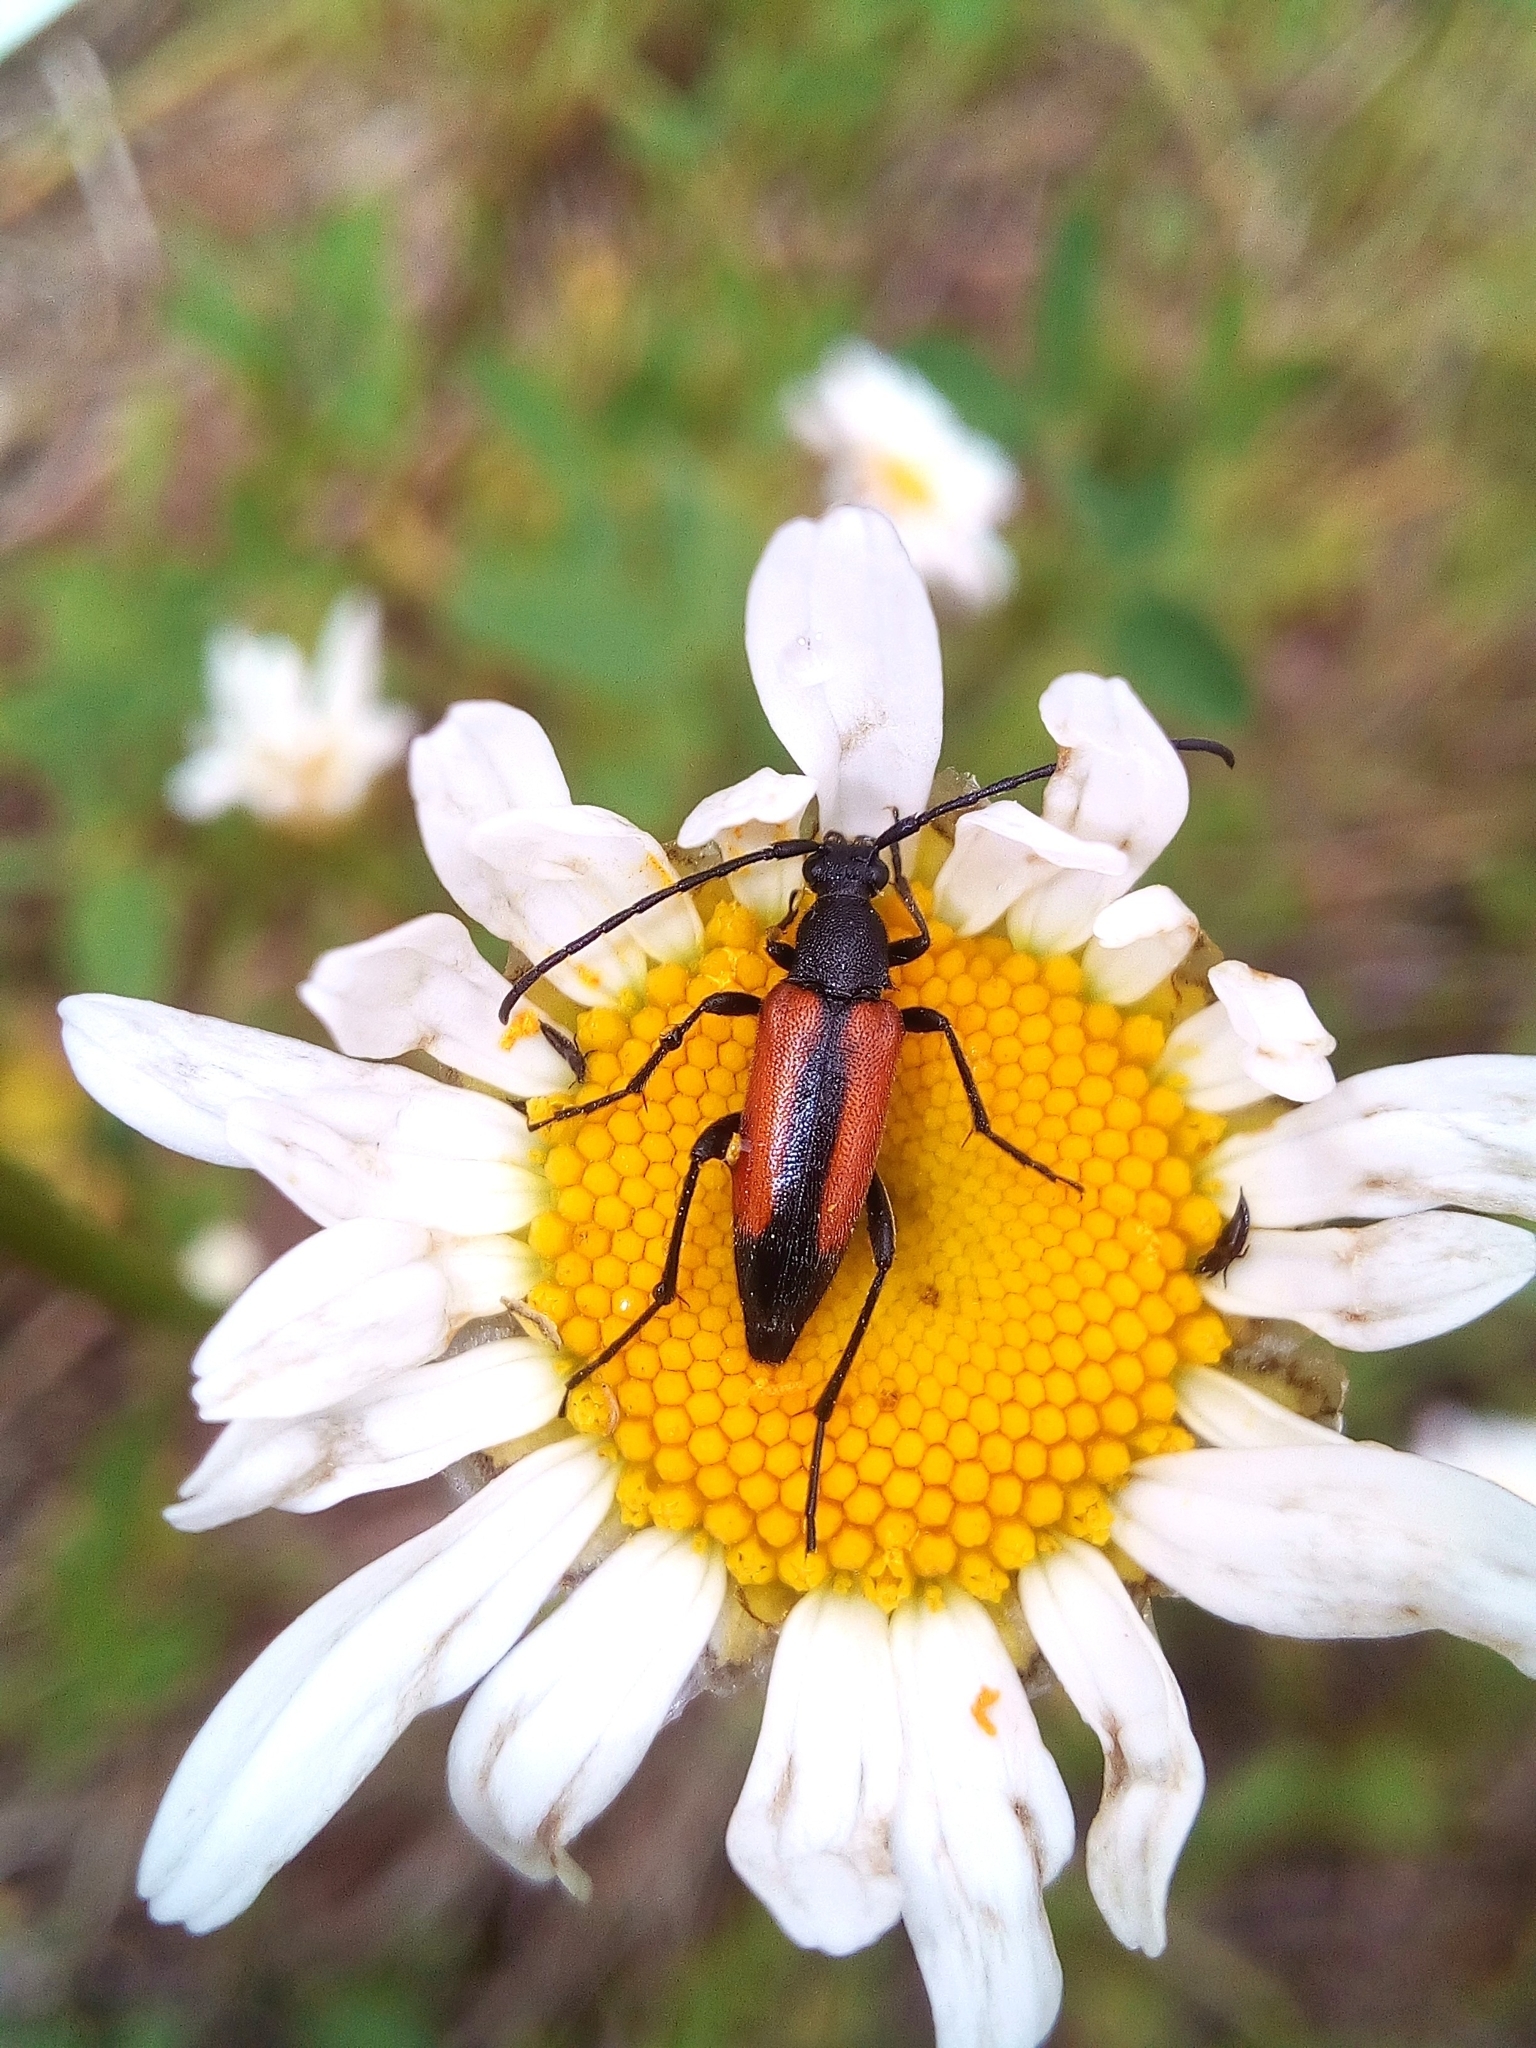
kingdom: Animalia
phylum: Arthropoda
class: Insecta
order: Coleoptera
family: Cerambycidae
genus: Stenurella
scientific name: Stenurella melanura
